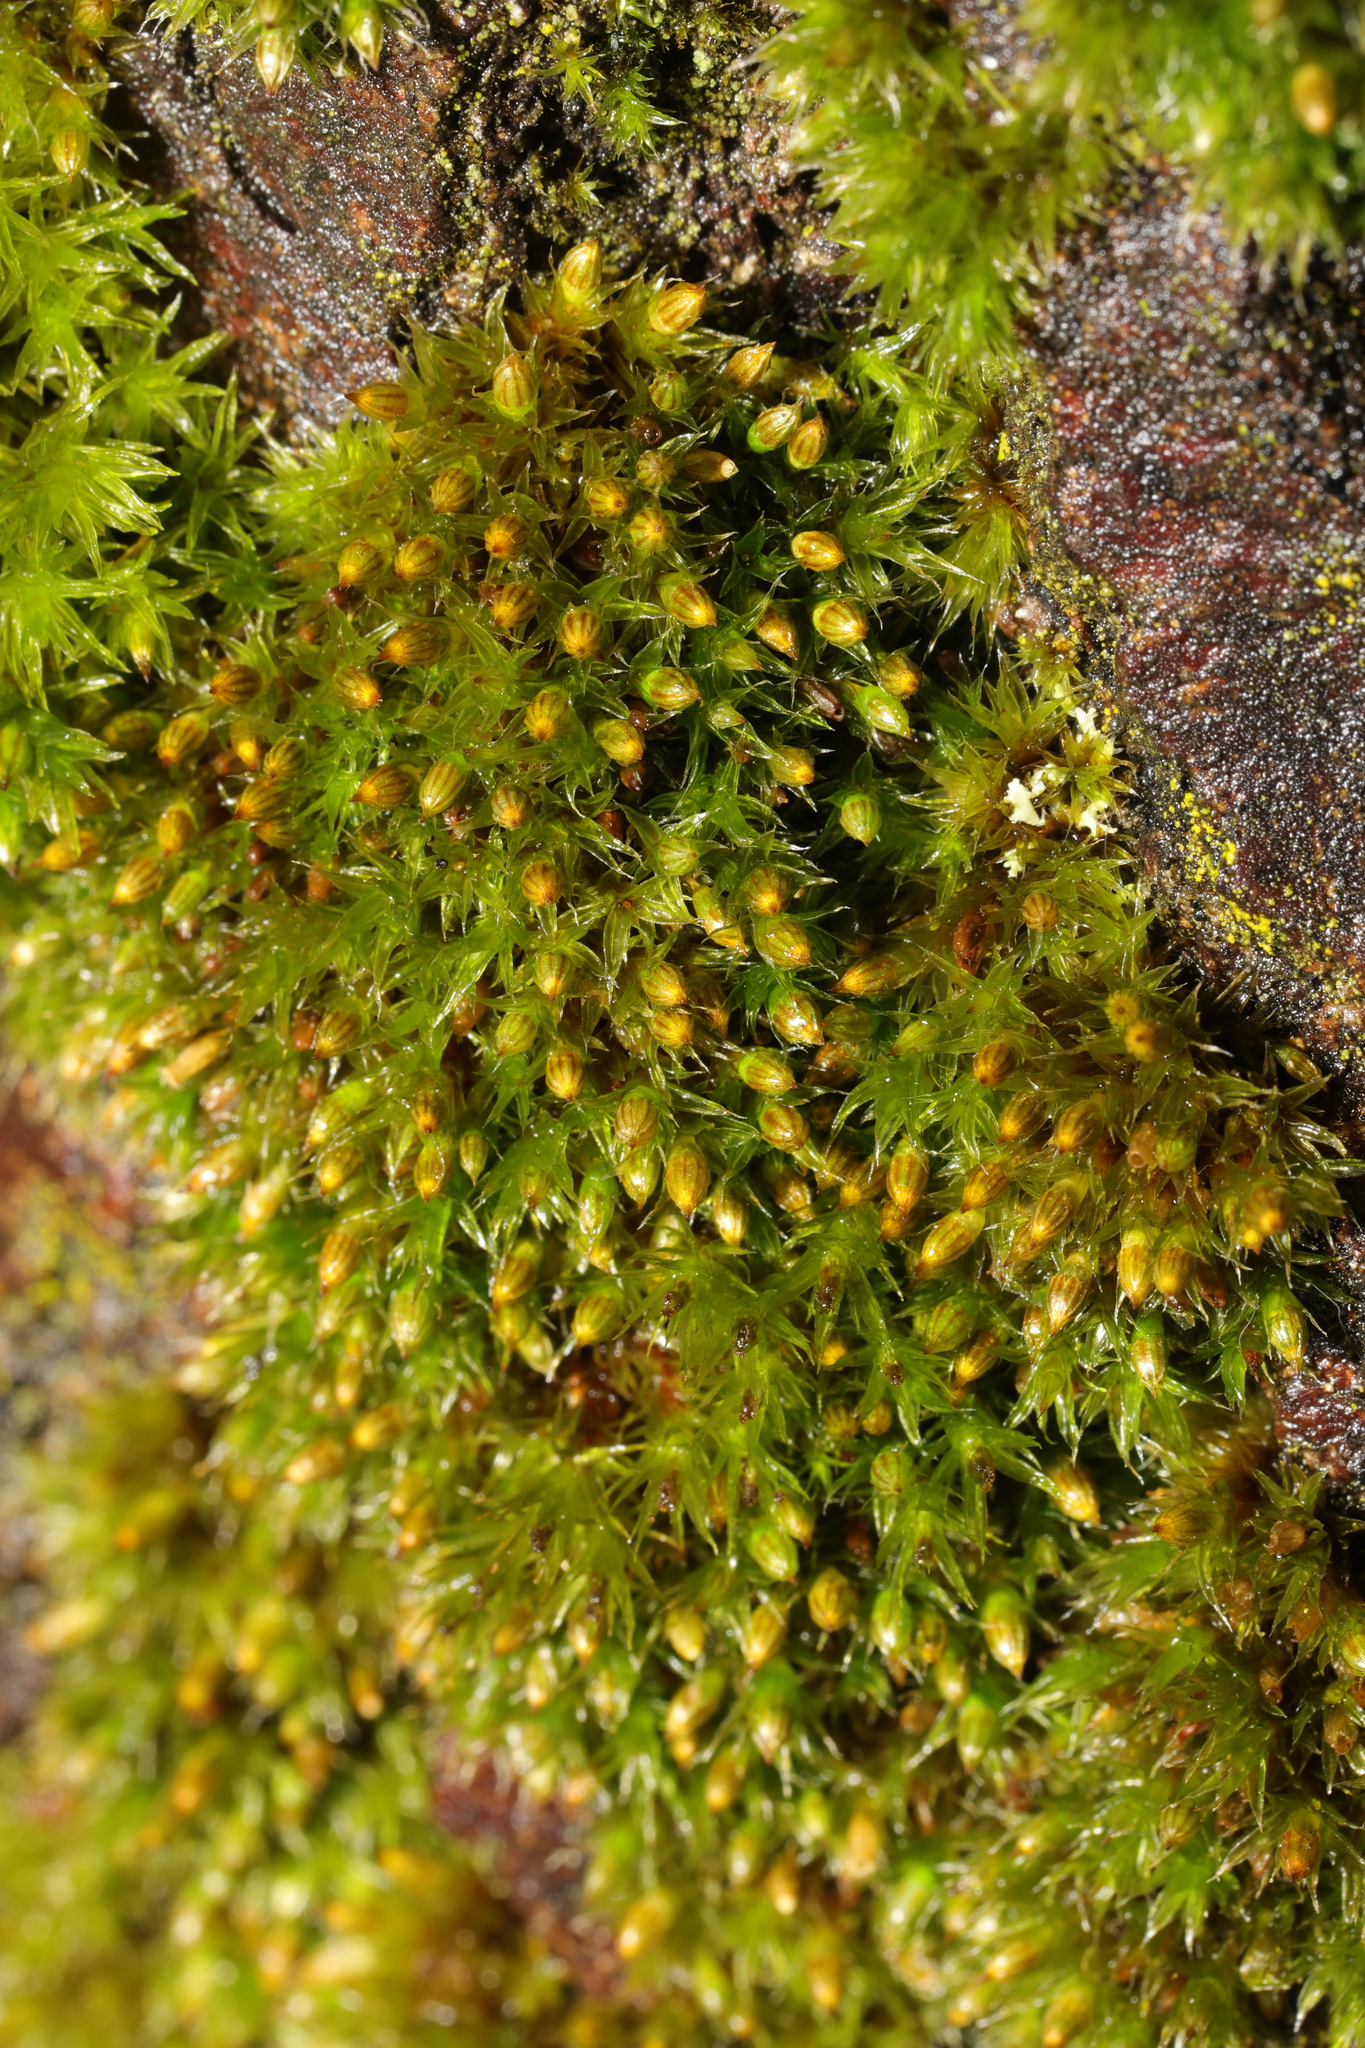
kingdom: Plantae
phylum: Bryophyta
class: Bryopsida
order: Orthotrichales
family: Orthotrichaceae
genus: Orthotrichum
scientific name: Orthotrichum diaphanum
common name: White-tipped bristle-moss
